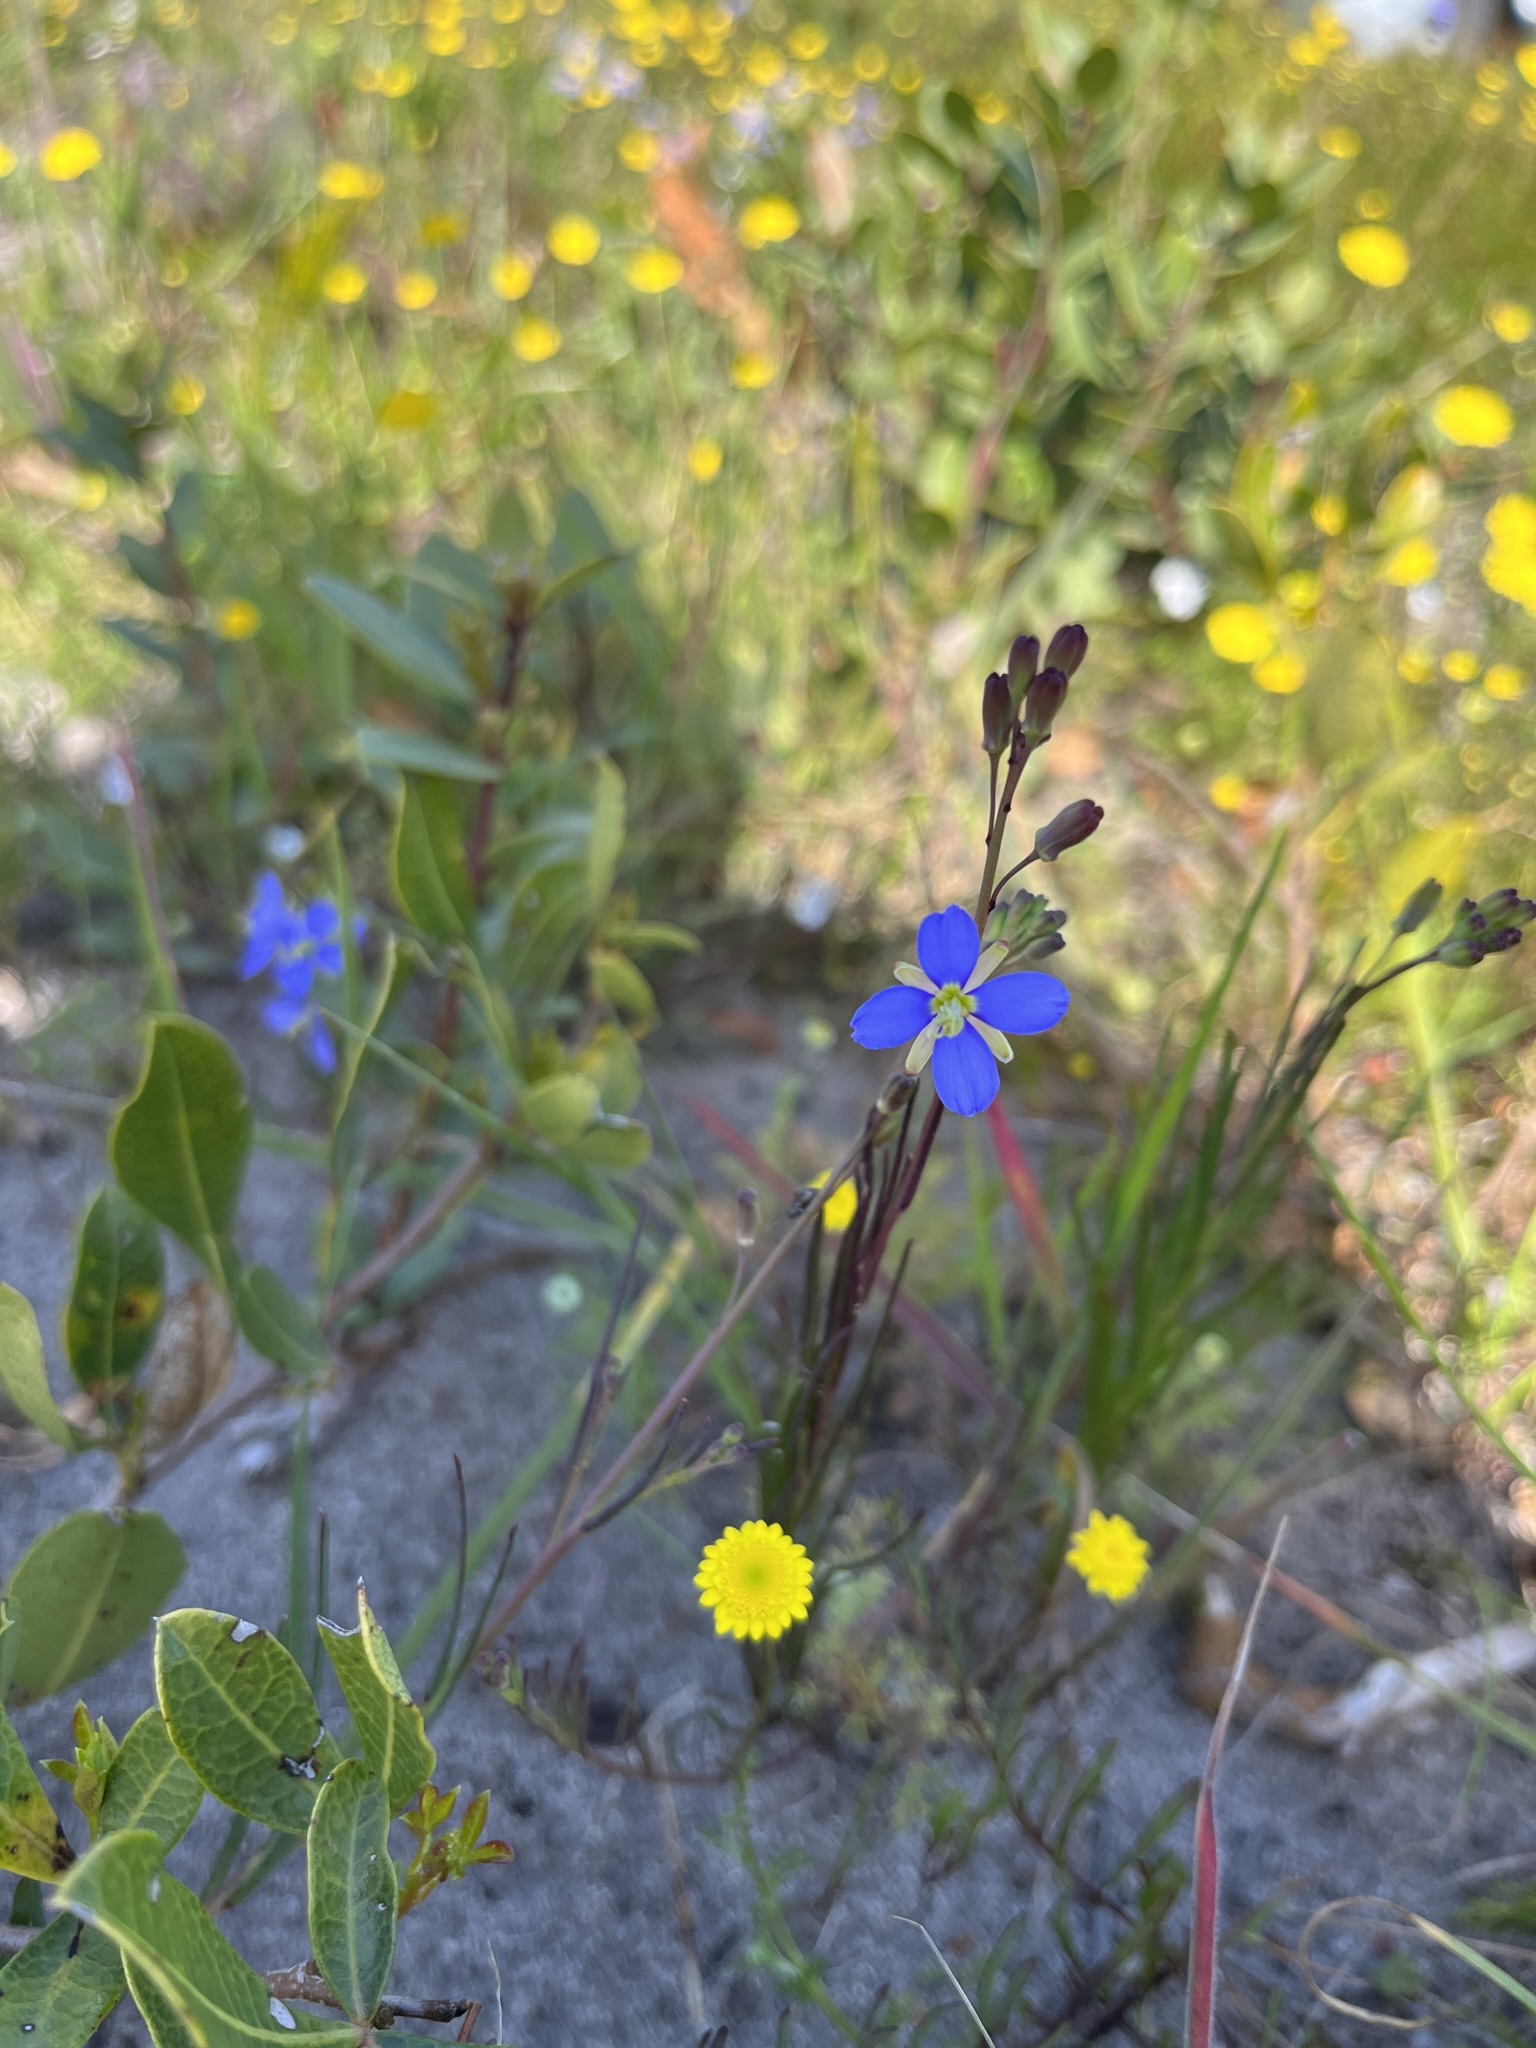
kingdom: Plantae
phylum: Tracheophyta
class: Magnoliopsida
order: Brassicales
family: Brassicaceae
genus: Heliophila
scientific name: Heliophila linearis
